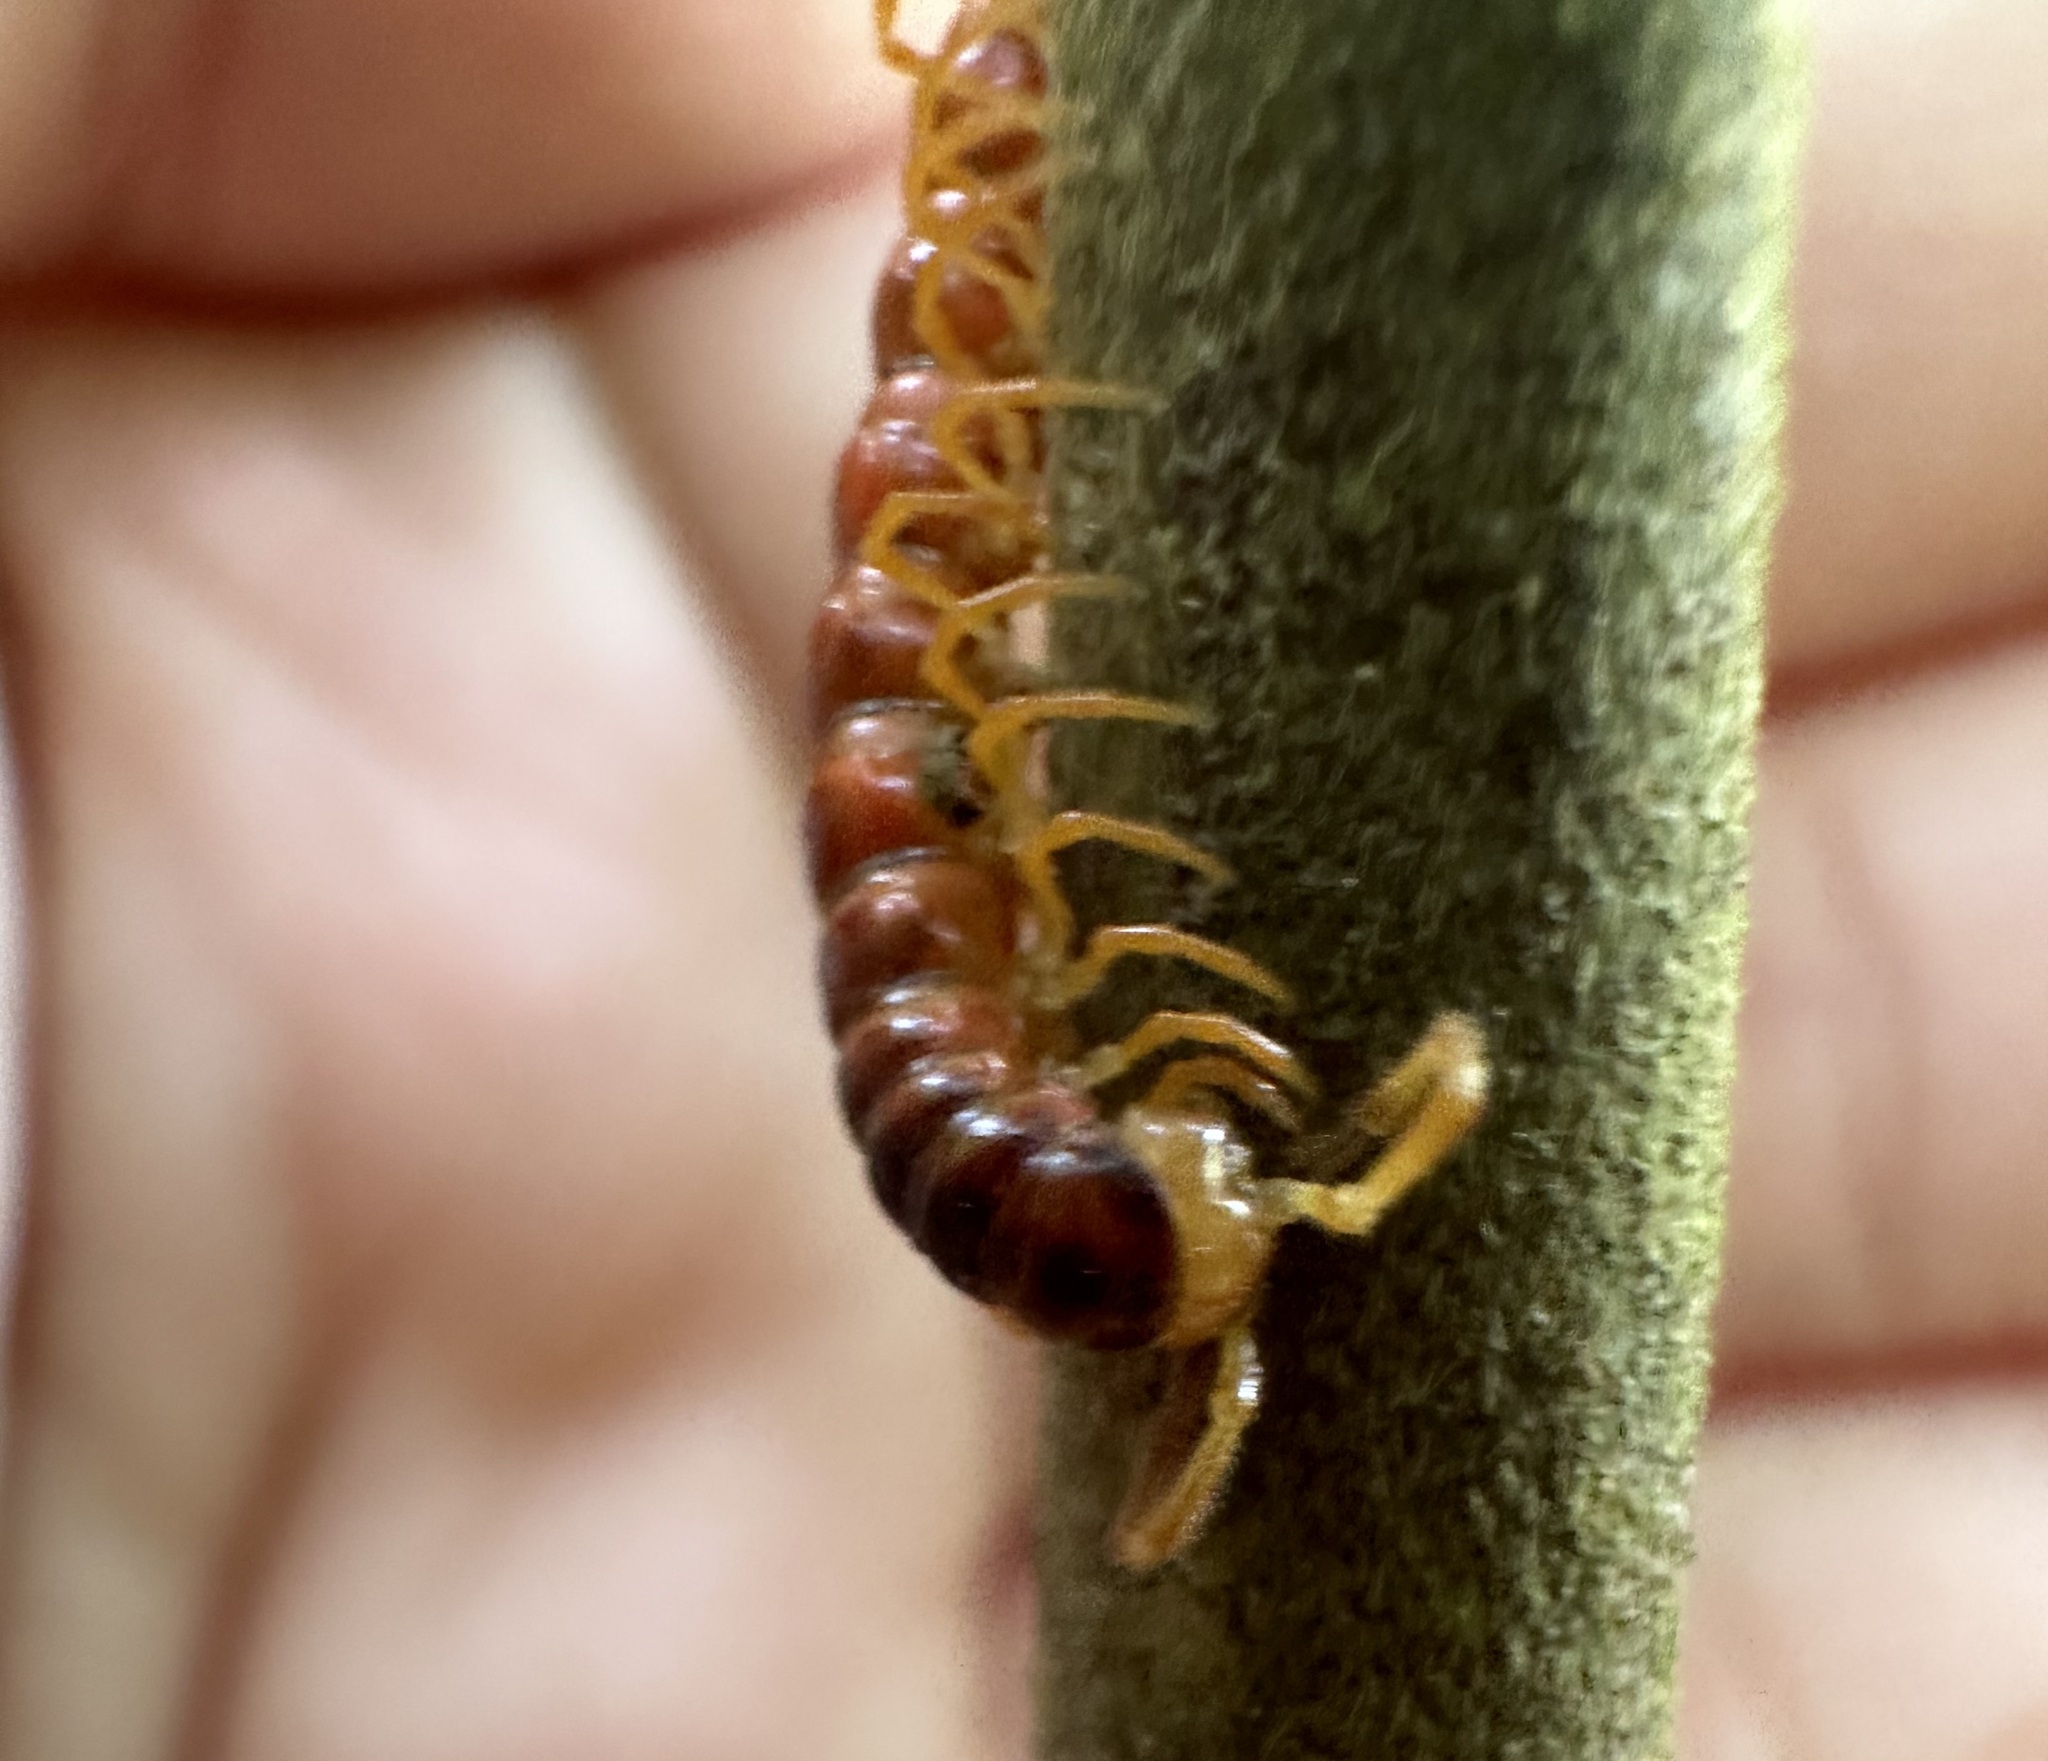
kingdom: Animalia
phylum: Arthropoda
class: Diplopoda
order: Polydesmida
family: Paradoxosomatidae
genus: Opisthodolichopus
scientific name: Opisthodolichopus scandens
